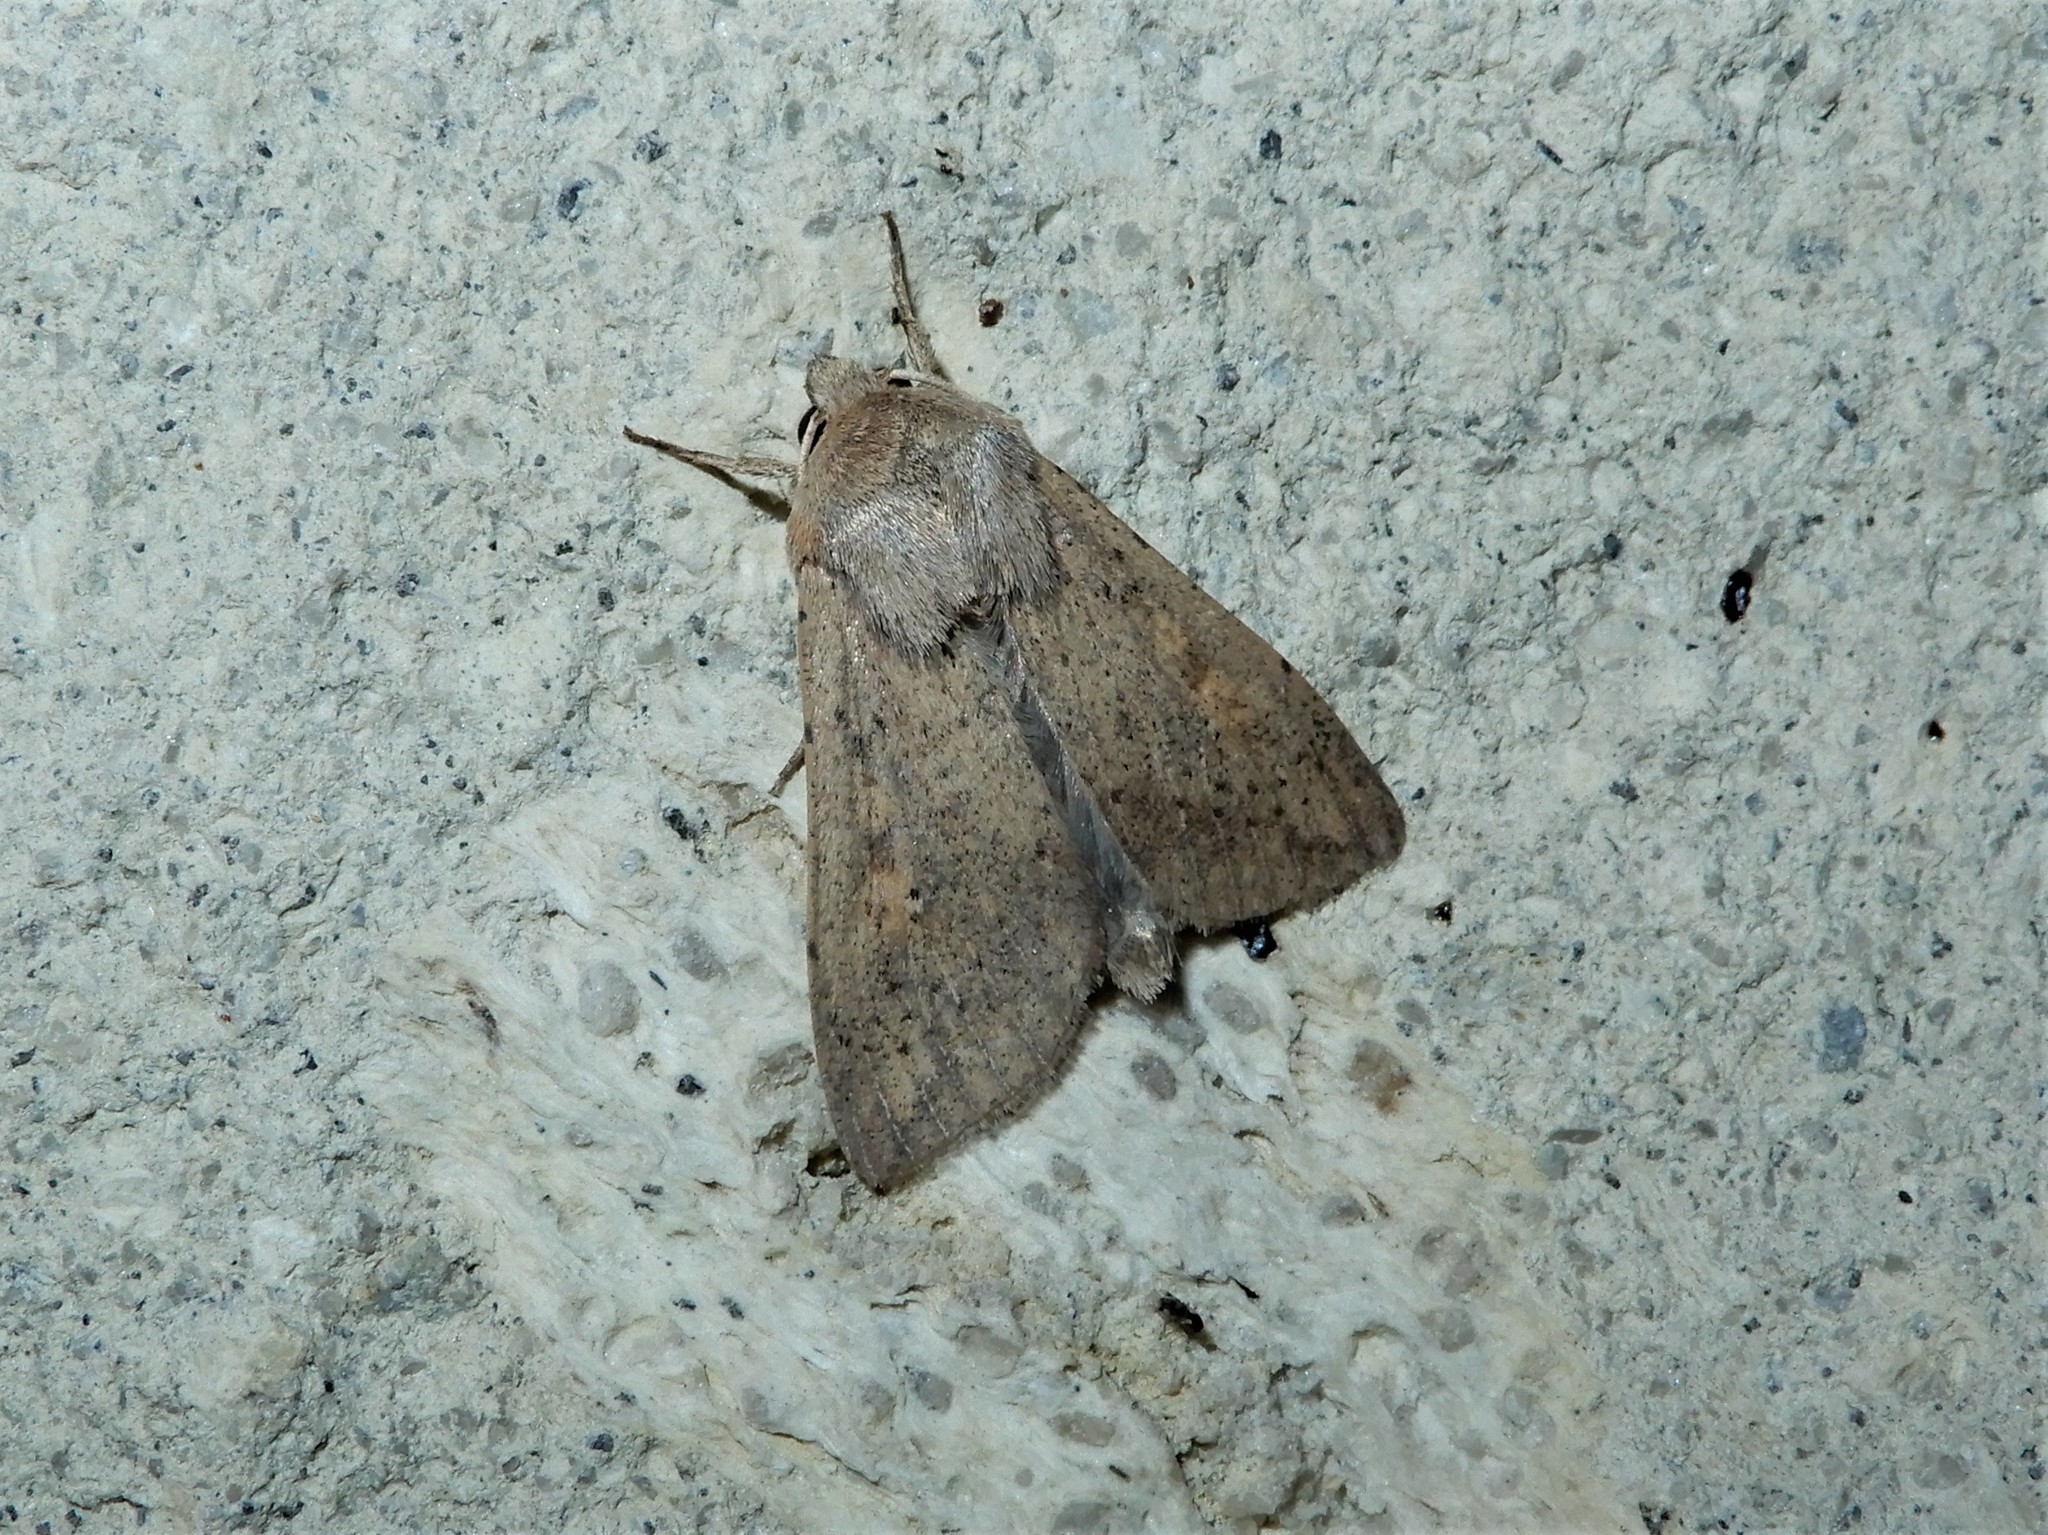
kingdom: Animalia
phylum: Arthropoda
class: Insecta
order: Lepidoptera
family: Noctuidae
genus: Mythimna
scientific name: Mythimna separata
